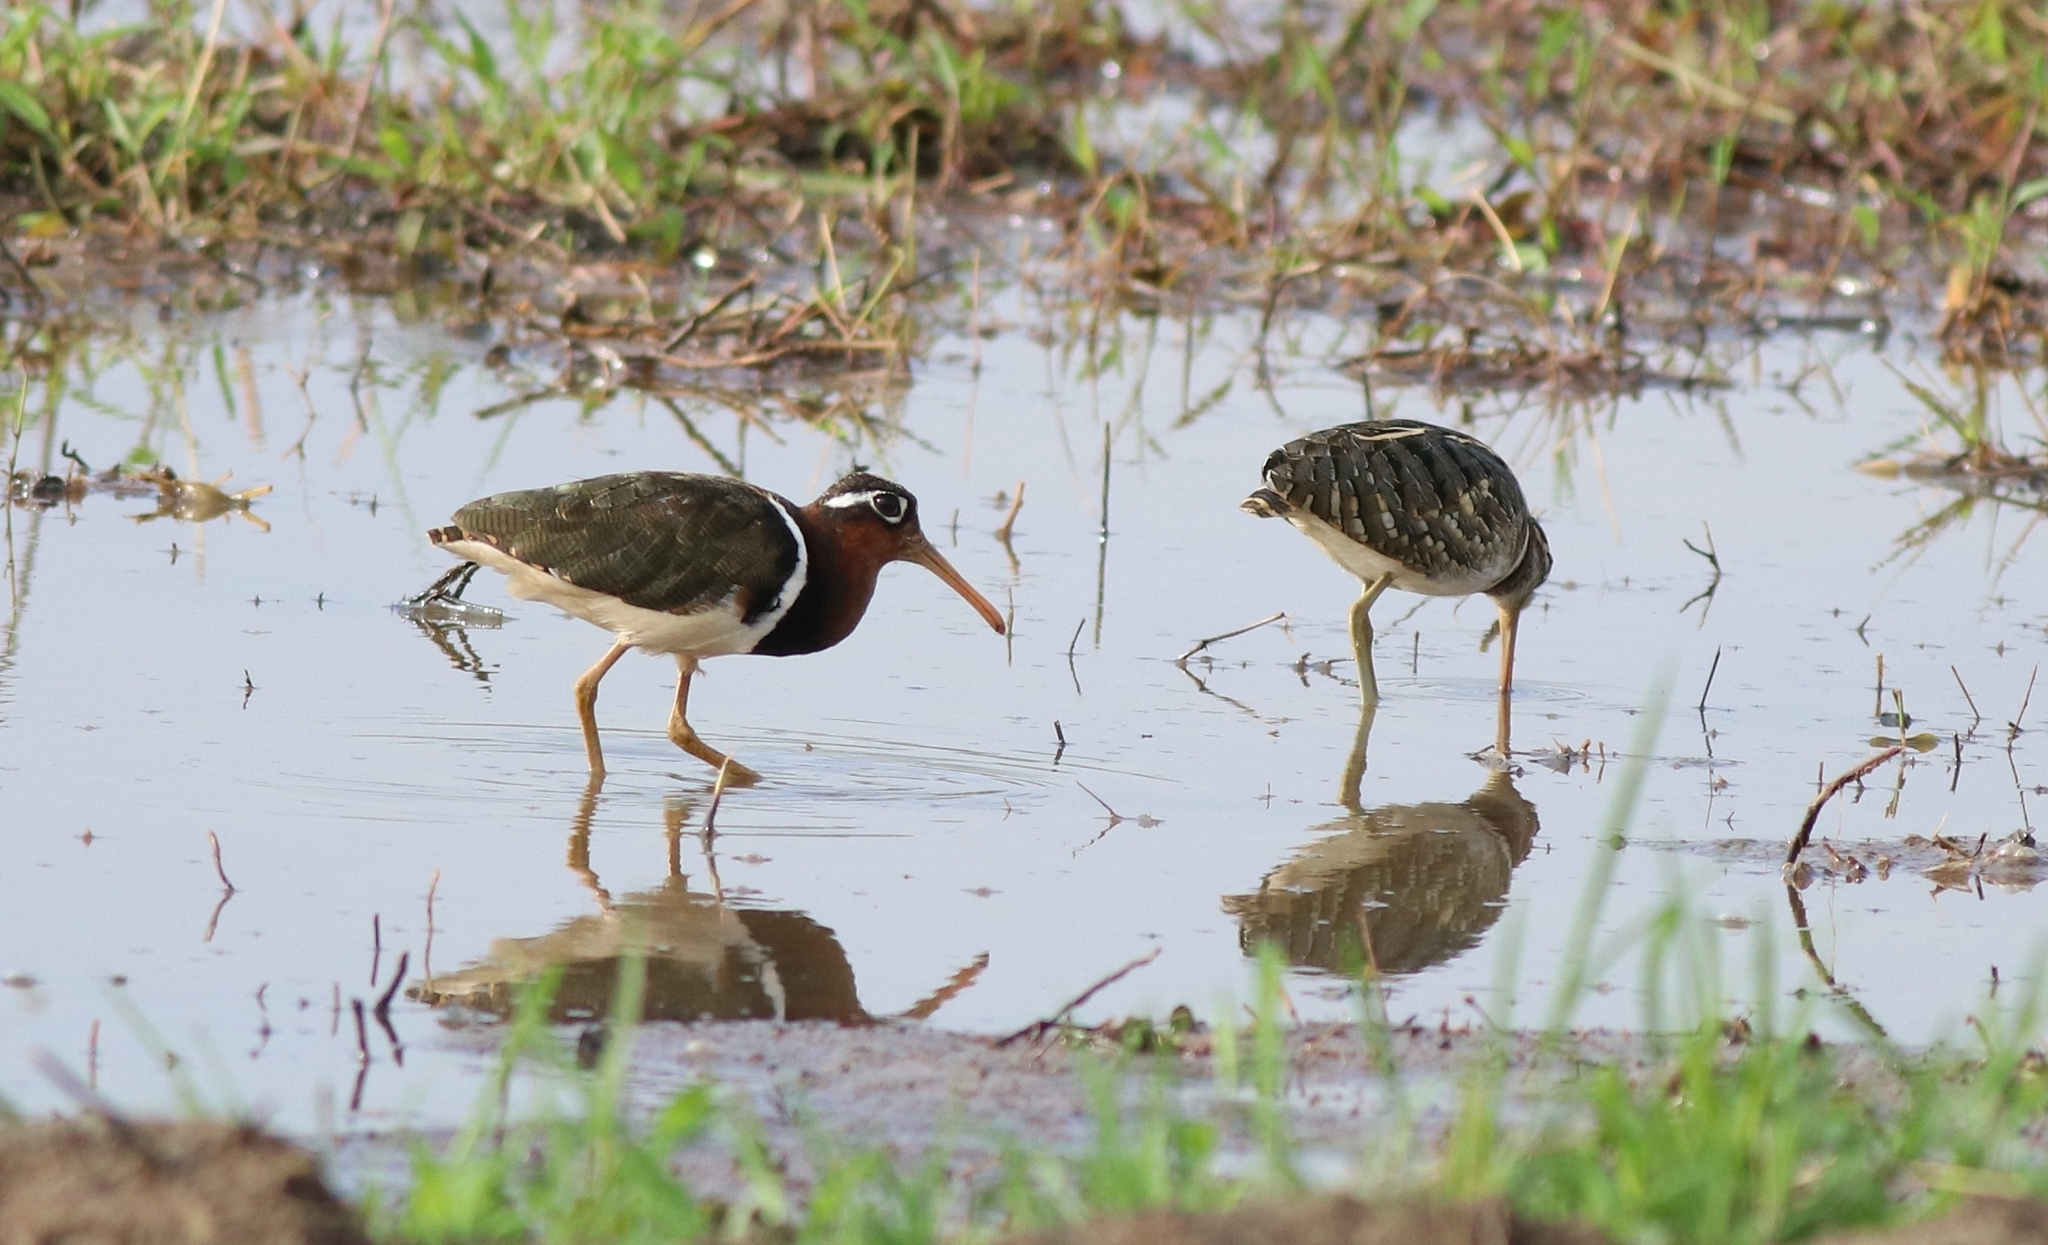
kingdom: Animalia
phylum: Chordata
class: Aves
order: Charadriiformes
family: Rostratulidae
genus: Rostratula
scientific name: Rostratula benghalensis
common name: Greater painted-snipe
